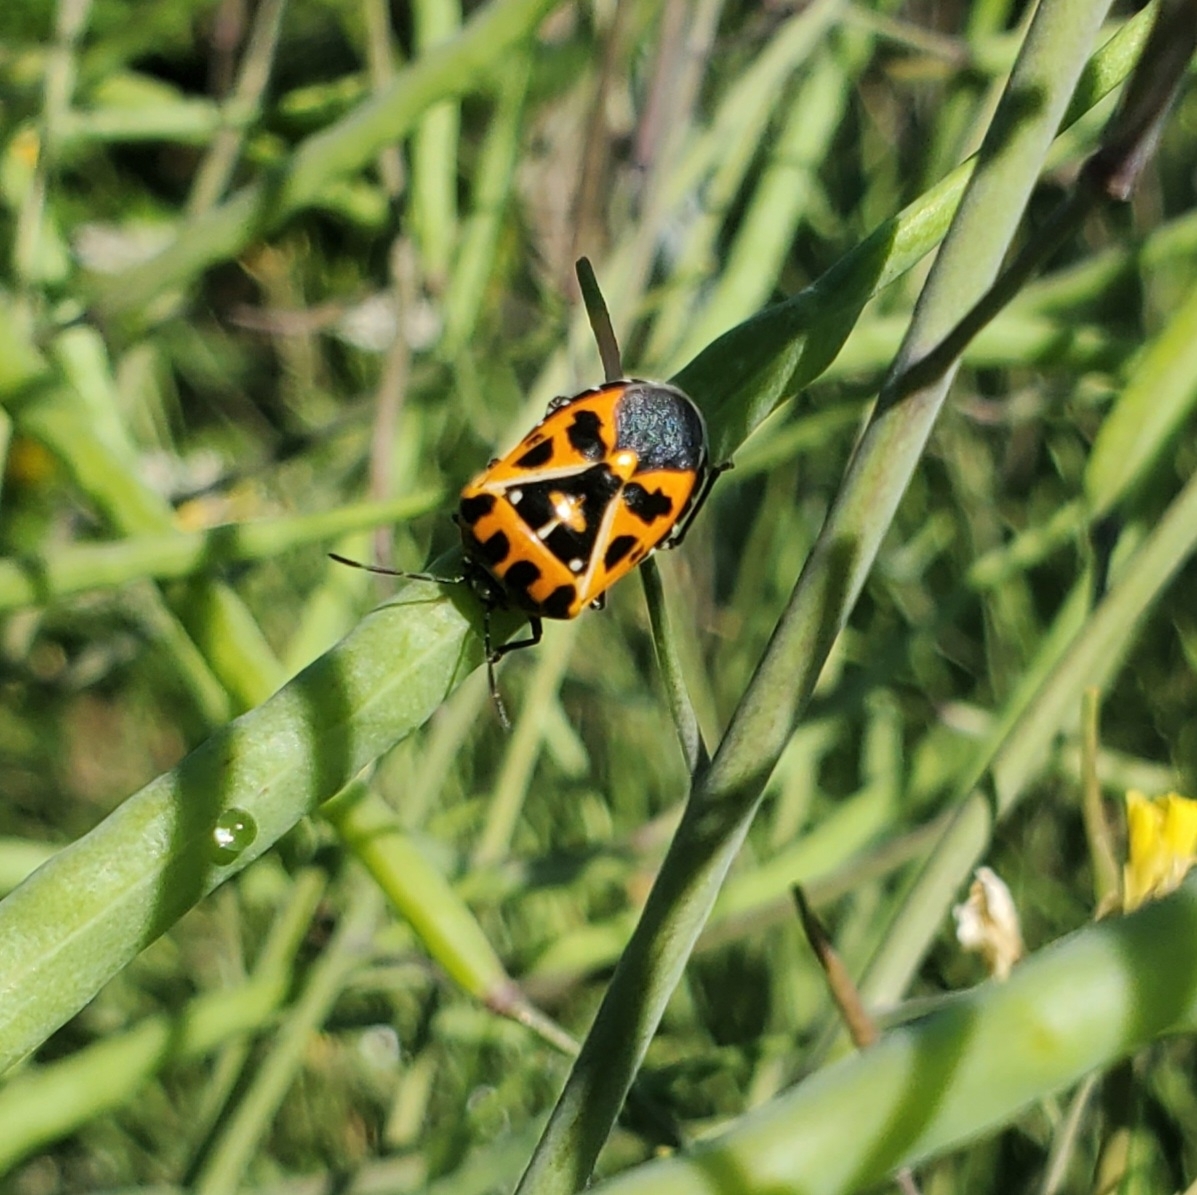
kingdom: Animalia
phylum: Arthropoda
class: Insecta
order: Hemiptera
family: Pentatomidae
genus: Murgantia
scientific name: Murgantia histrionica
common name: Harlequin bug
